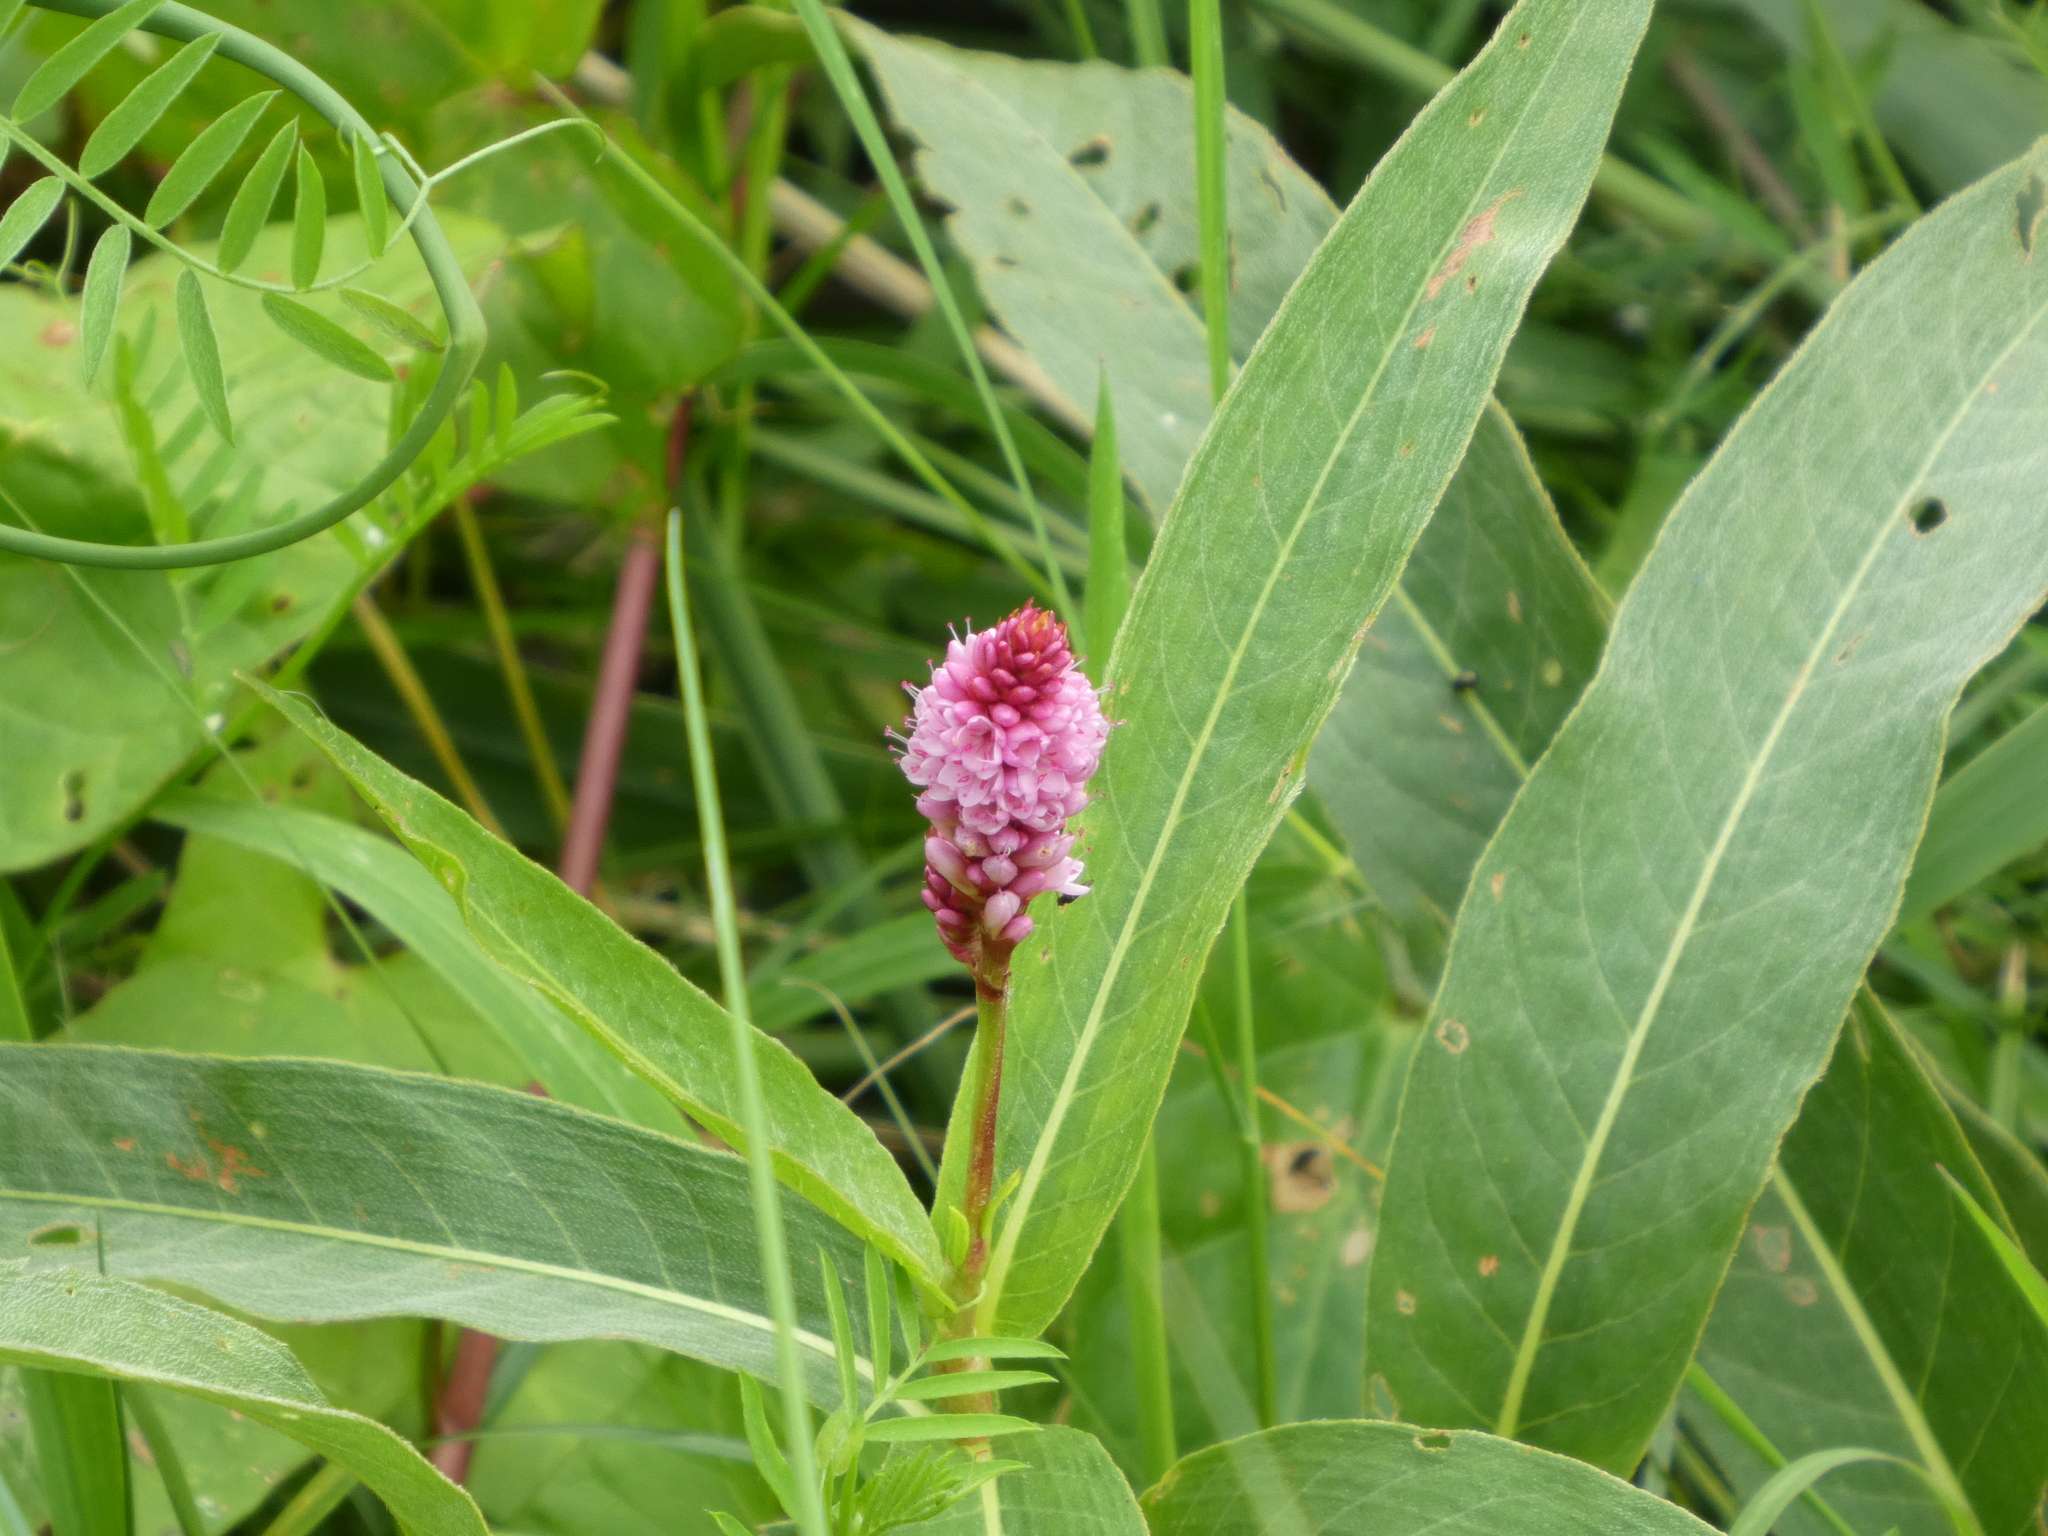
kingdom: Plantae
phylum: Tracheophyta
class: Magnoliopsida
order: Caryophyllales
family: Polygonaceae
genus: Persicaria
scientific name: Persicaria amphibia
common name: Amphibious bistort
